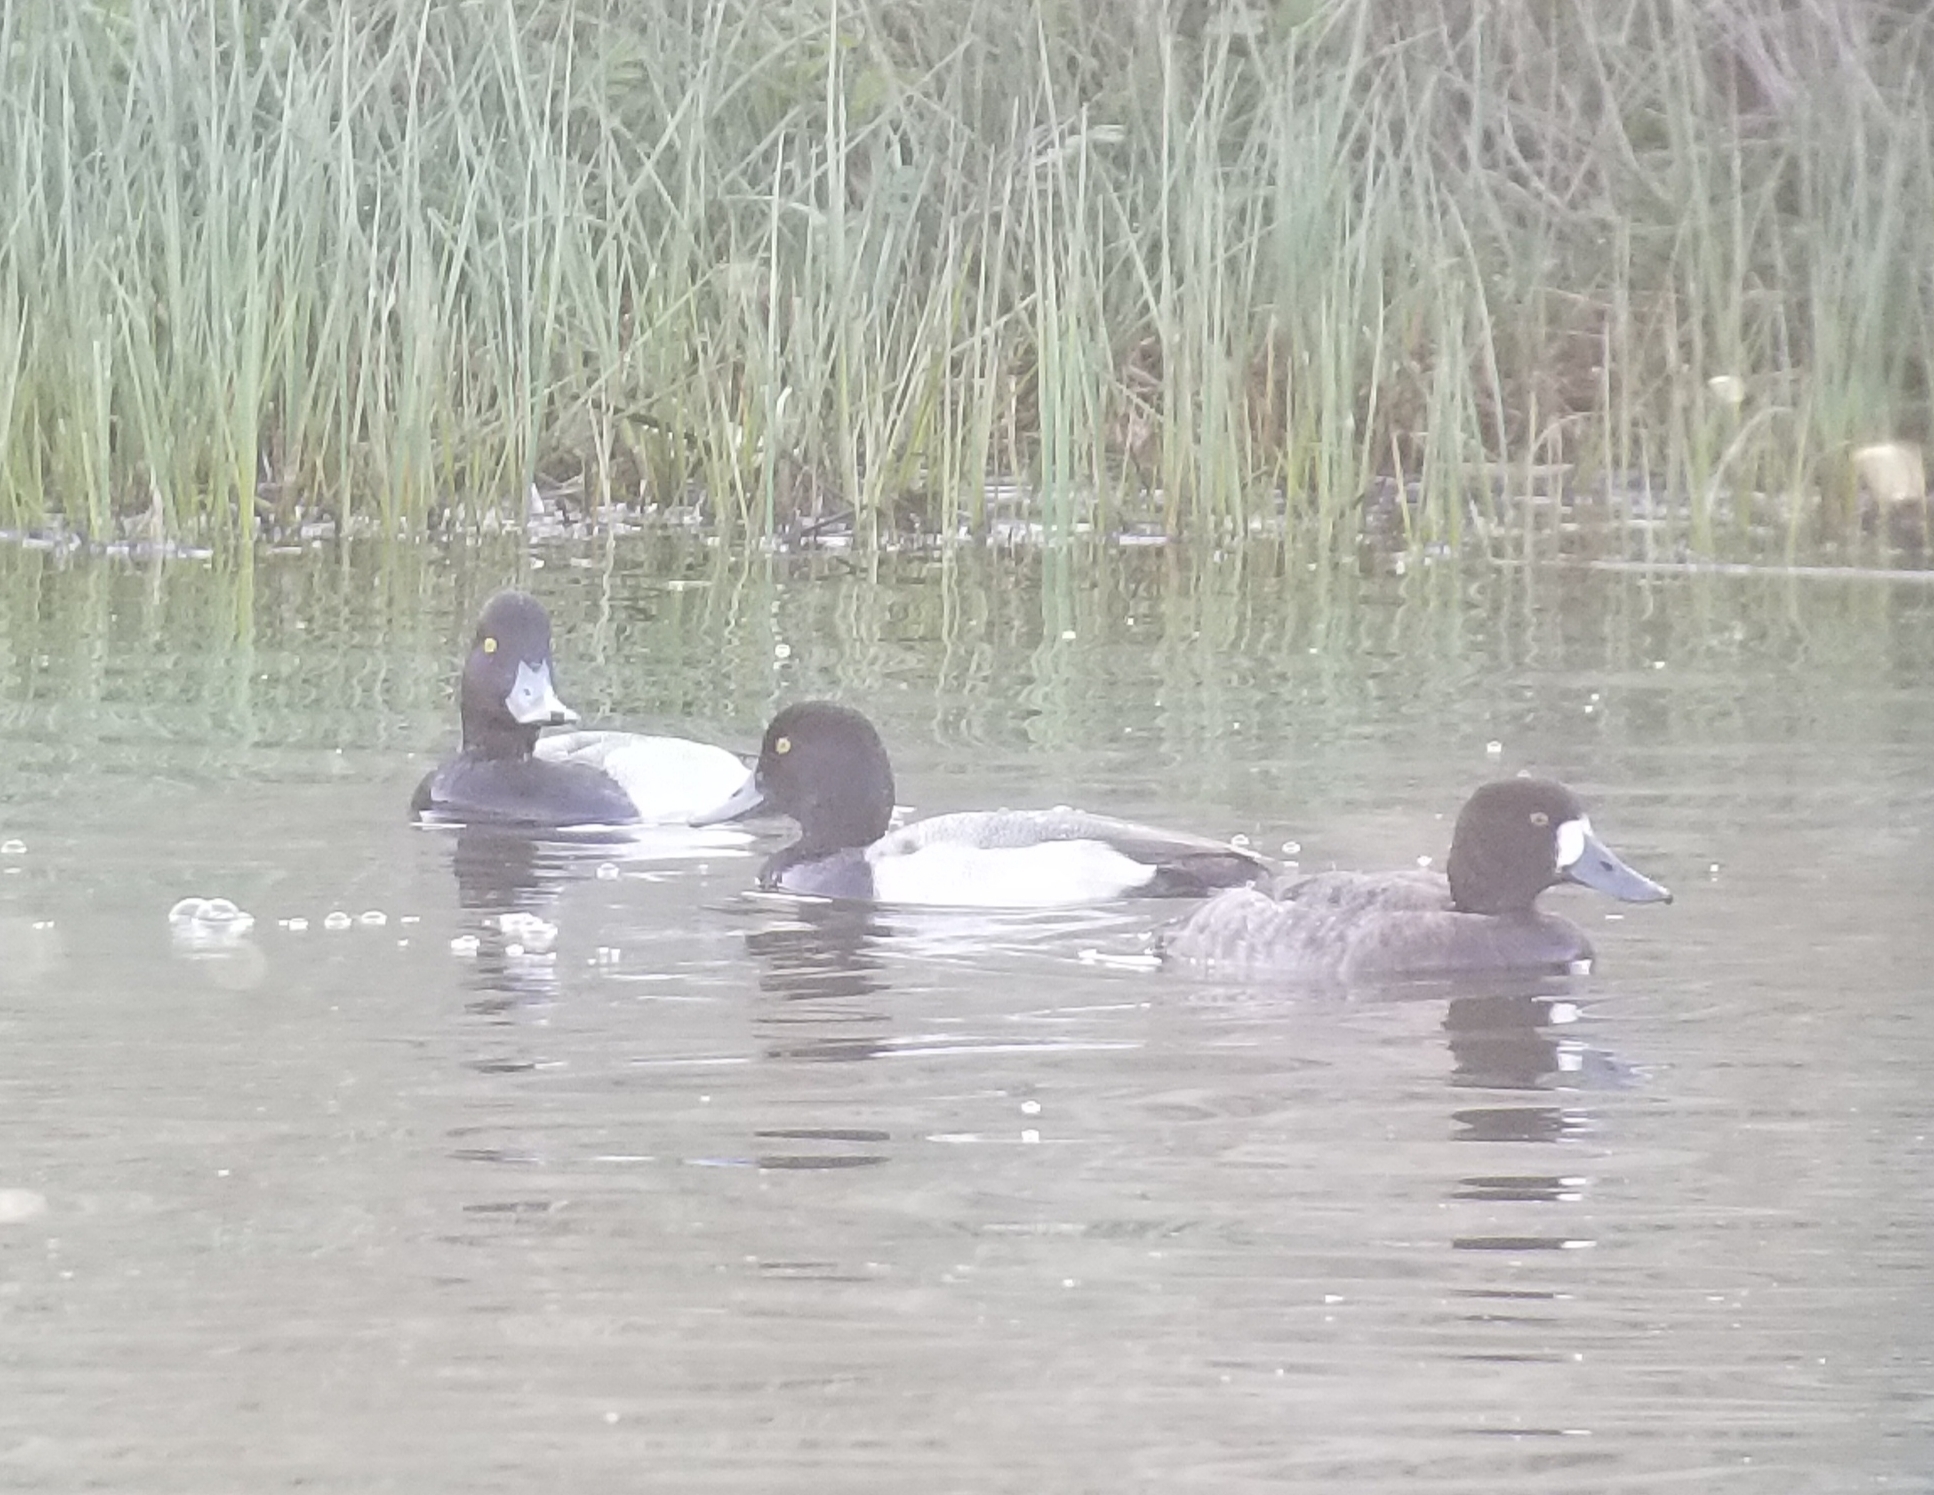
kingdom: Animalia
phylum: Chordata
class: Aves
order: Anseriformes
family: Anatidae
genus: Aythya
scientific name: Aythya marila
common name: Greater scaup
